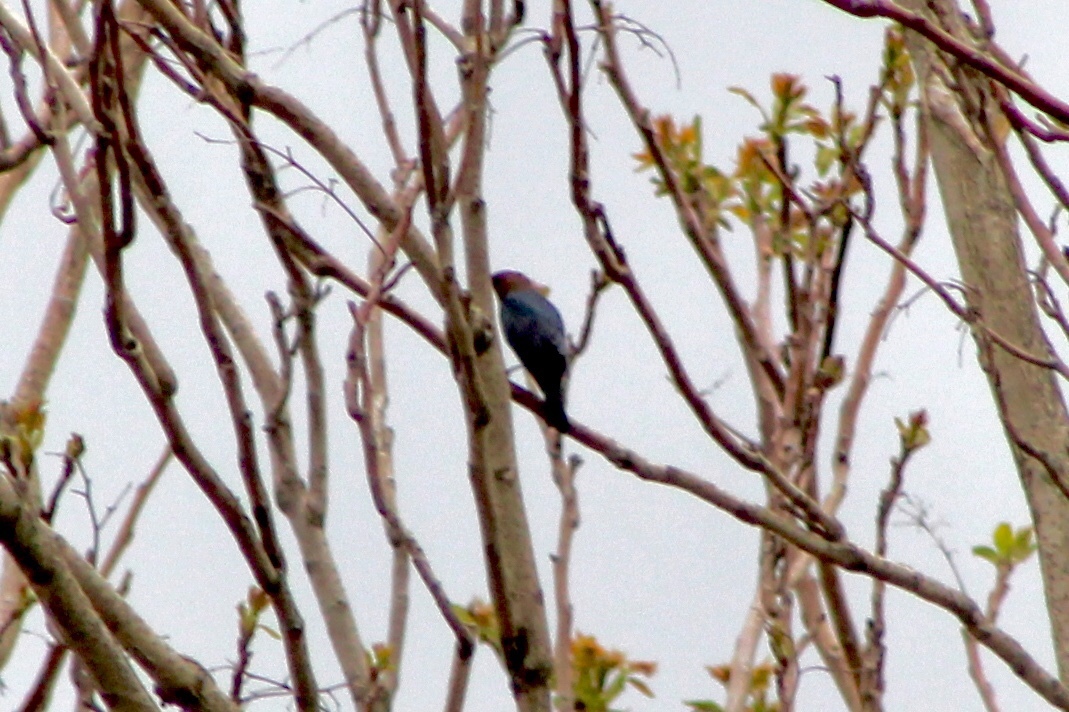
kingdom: Animalia
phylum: Chordata
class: Aves
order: Passeriformes
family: Icteridae
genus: Molothrus
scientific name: Molothrus ater
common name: Brown-headed cowbird
